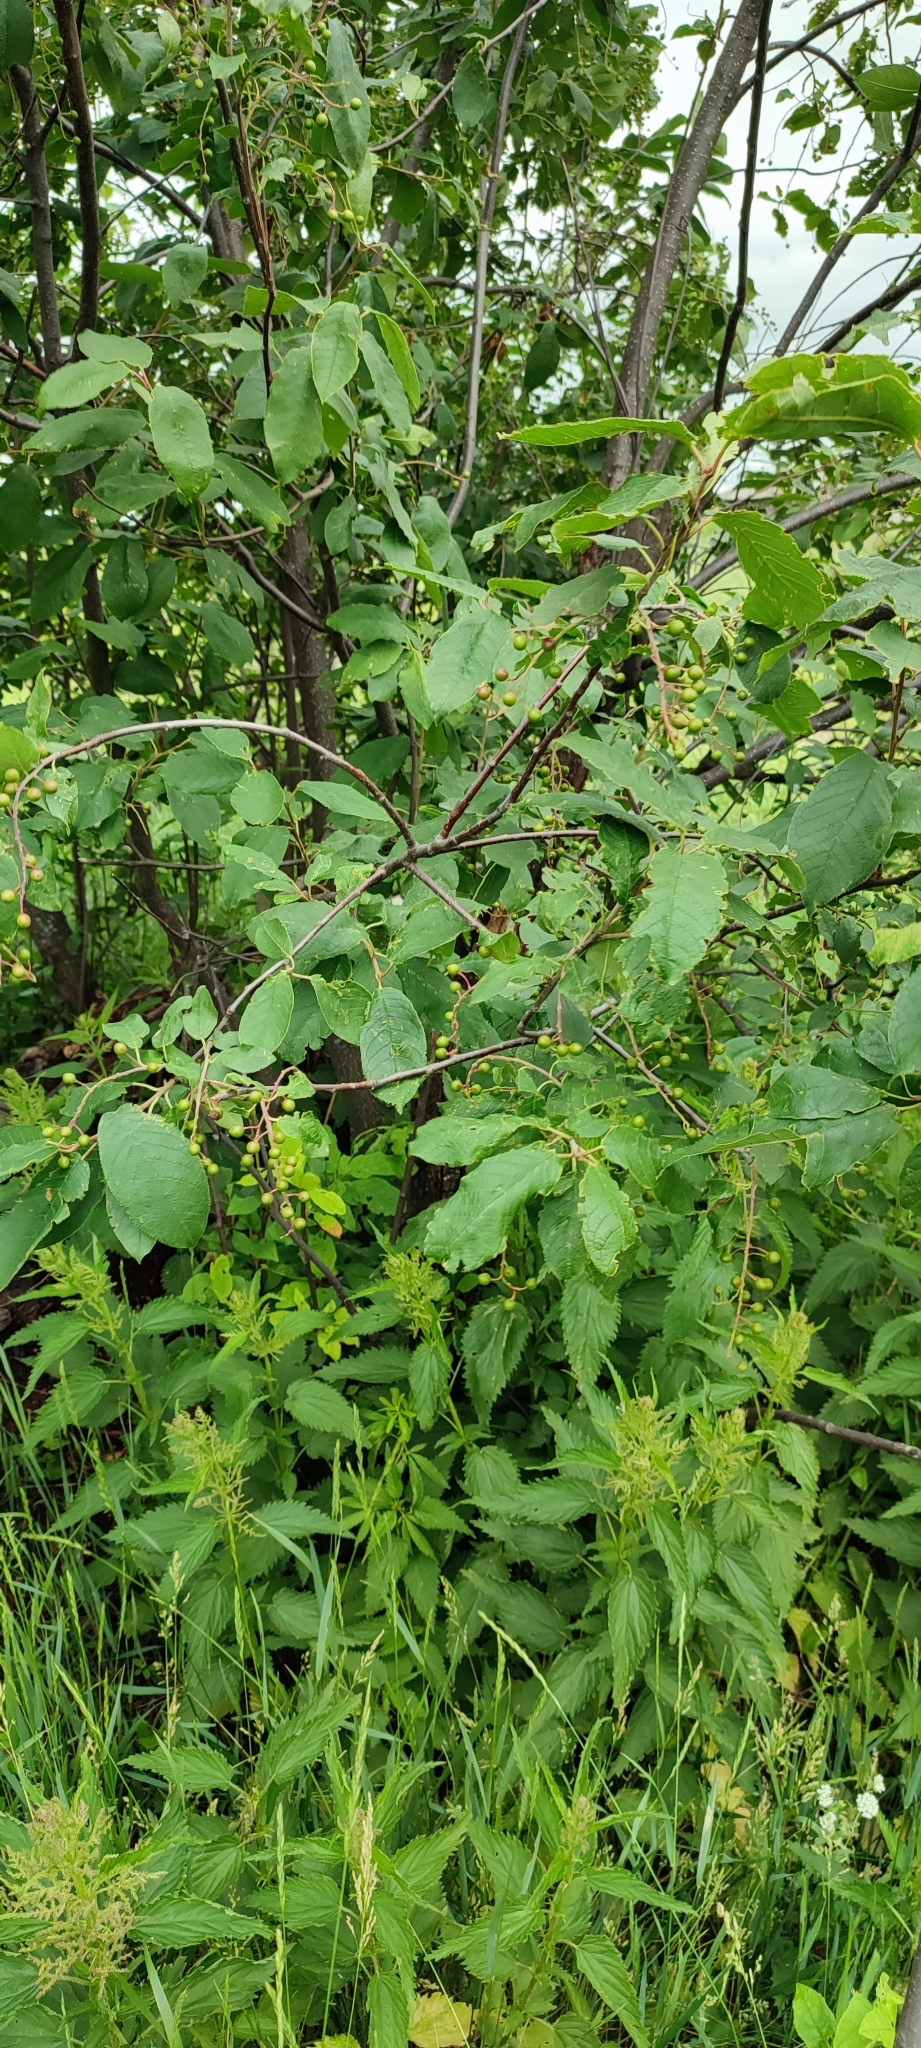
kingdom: Plantae
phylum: Tracheophyta
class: Magnoliopsida
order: Rosales
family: Rosaceae
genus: Prunus
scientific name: Prunus padus
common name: Bird cherry
